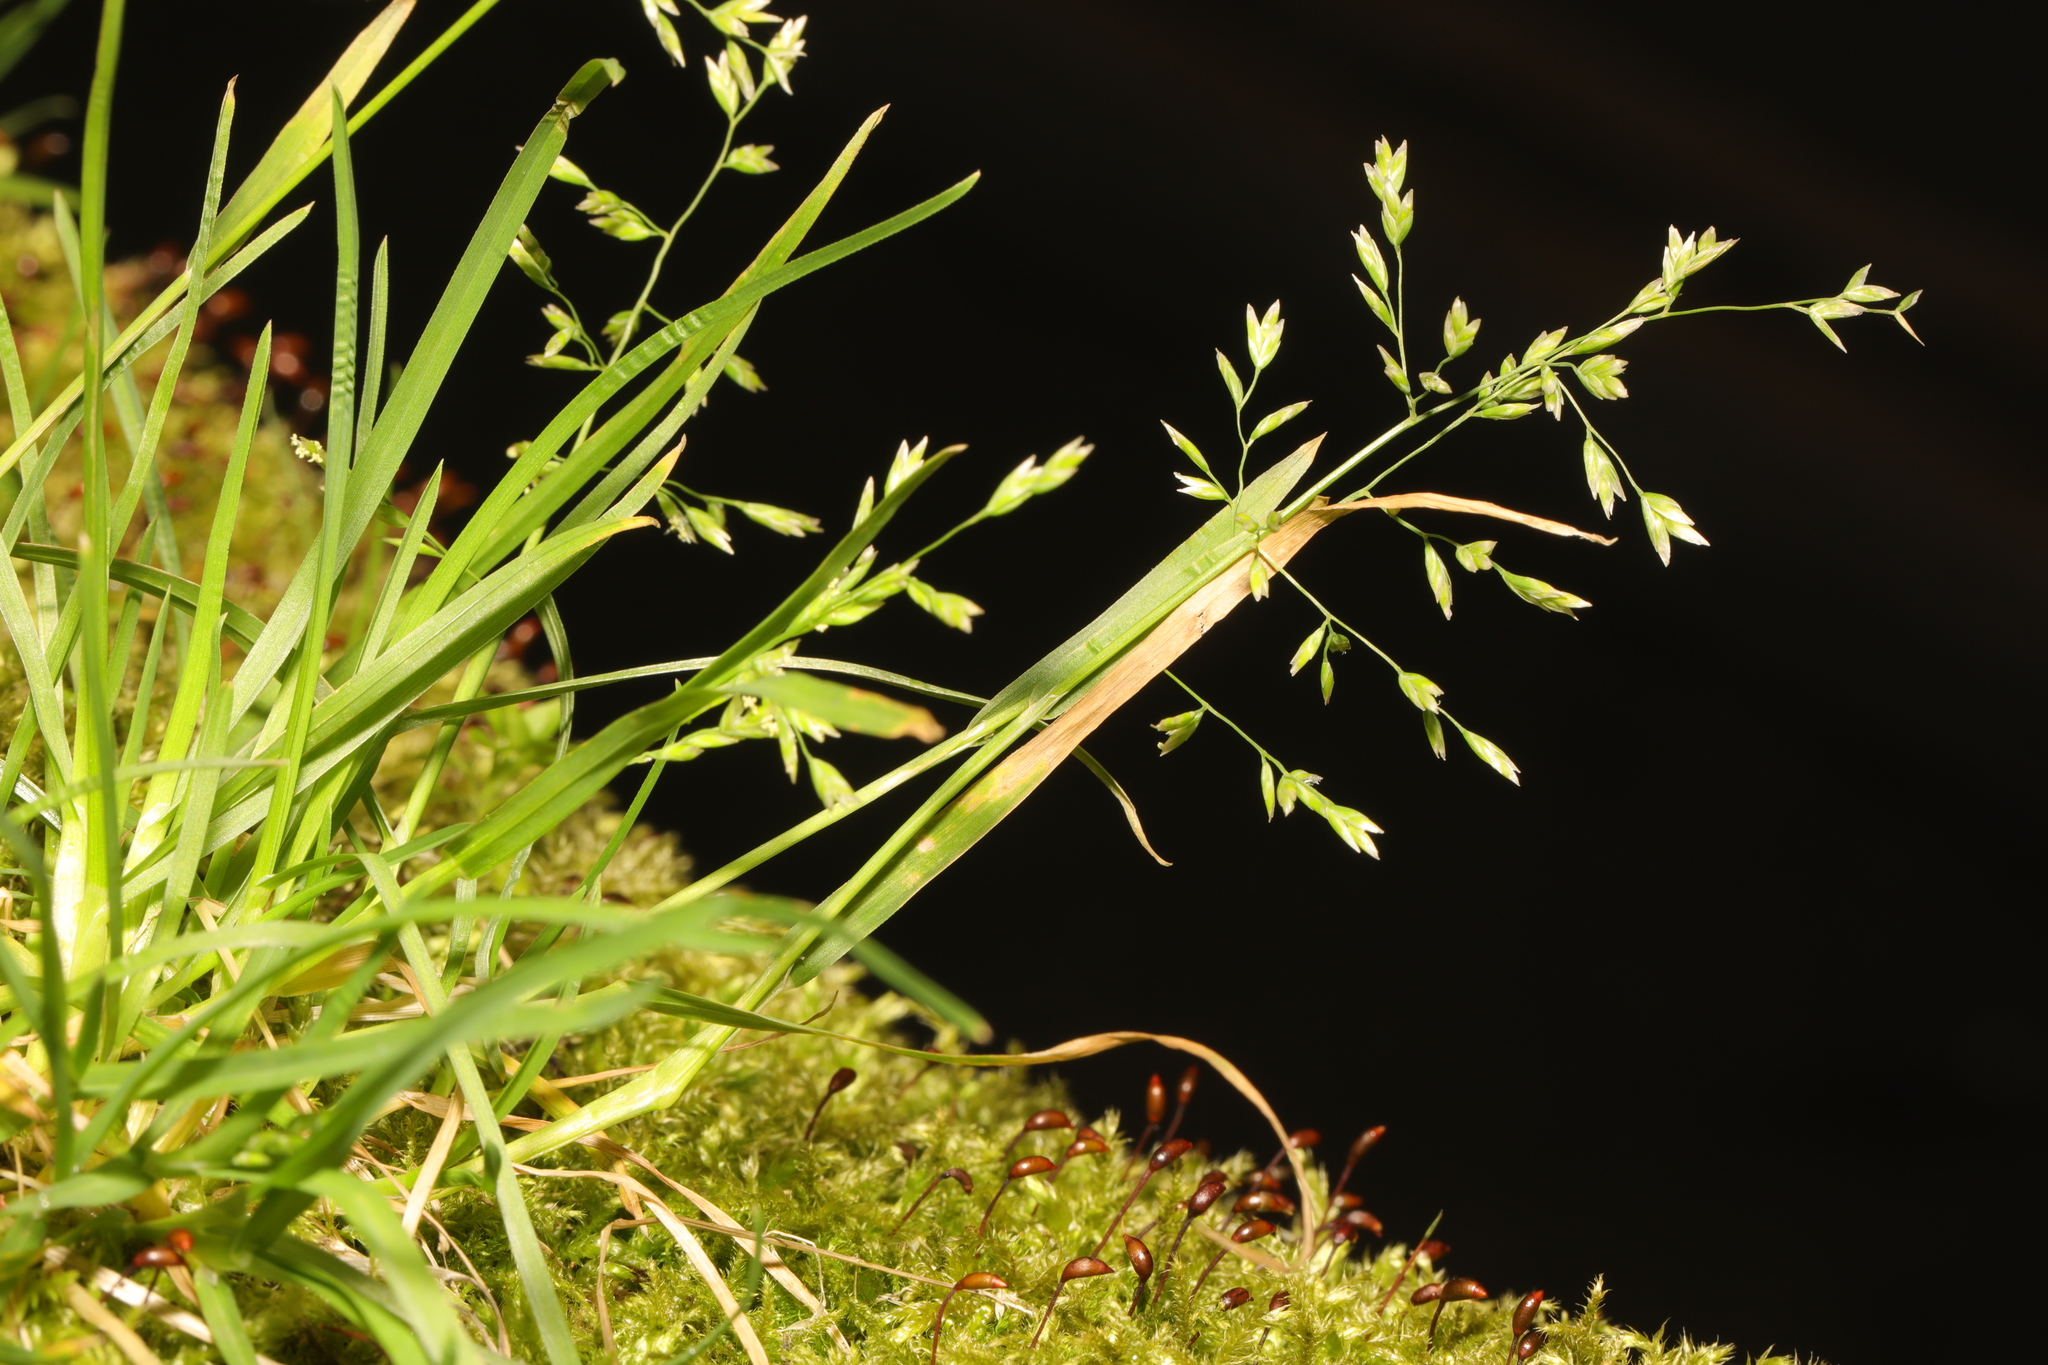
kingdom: Plantae
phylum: Tracheophyta
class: Liliopsida
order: Poales
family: Poaceae
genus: Poa
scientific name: Poa annua
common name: Annual bluegrass
